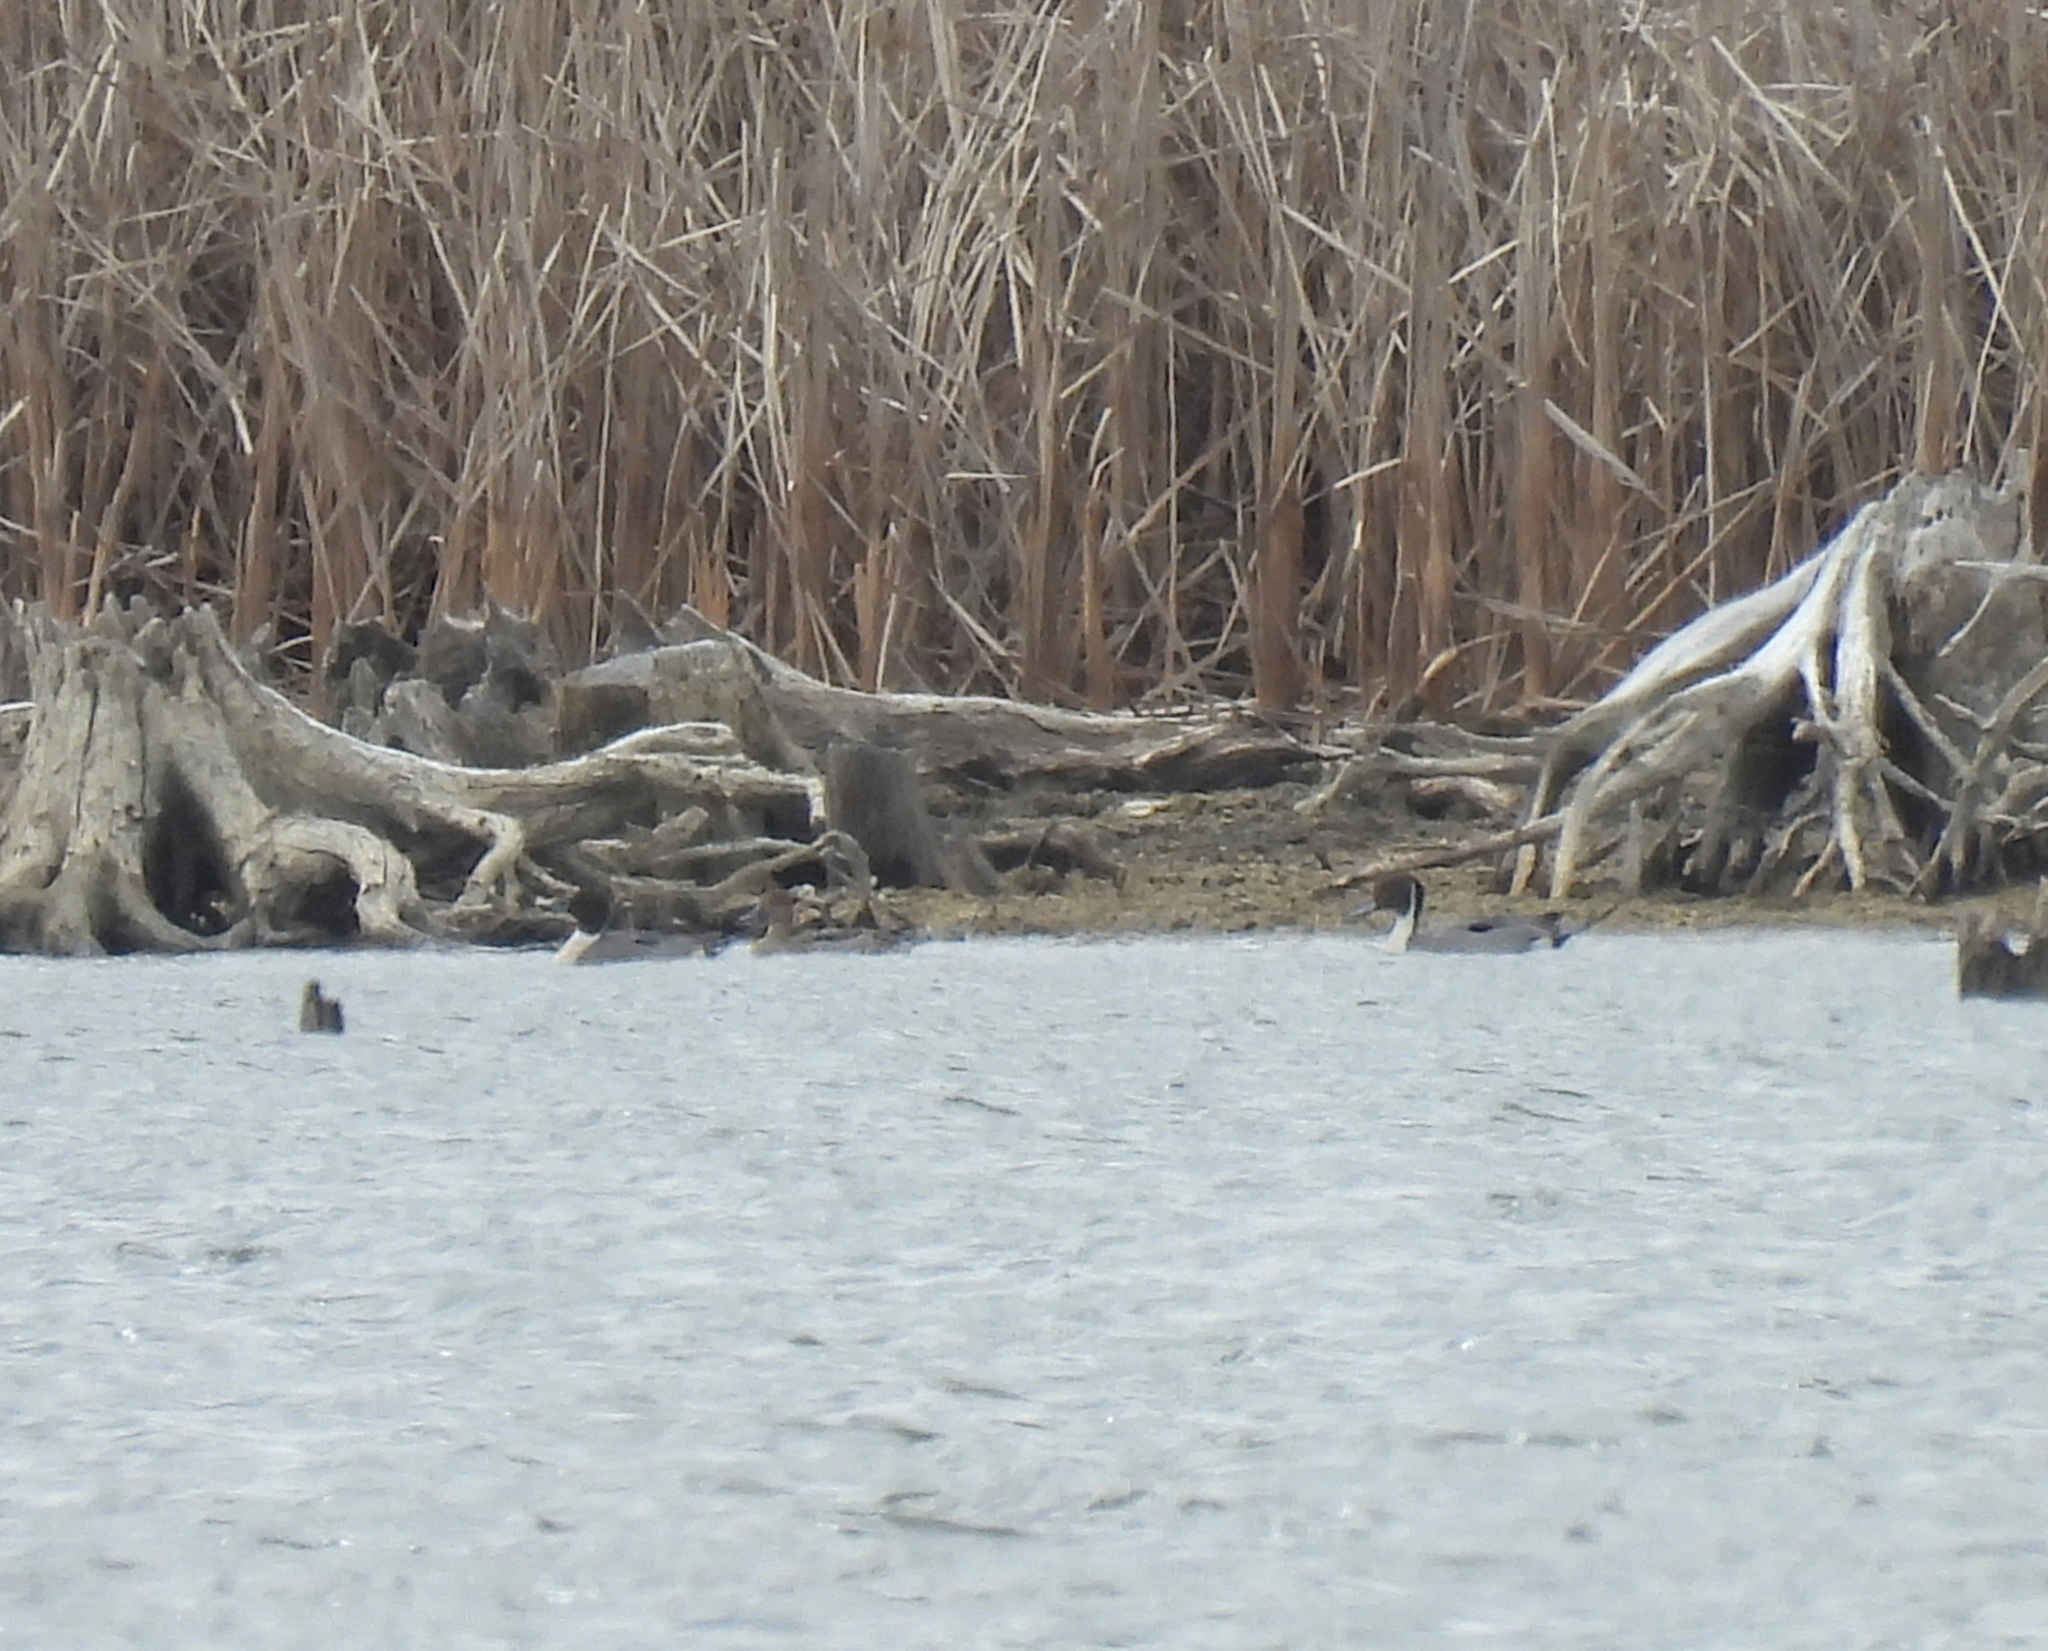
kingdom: Animalia
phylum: Chordata
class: Aves
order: Anseriformes
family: Anatidae
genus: Anas
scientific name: Anas acuta
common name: Northern pintail
